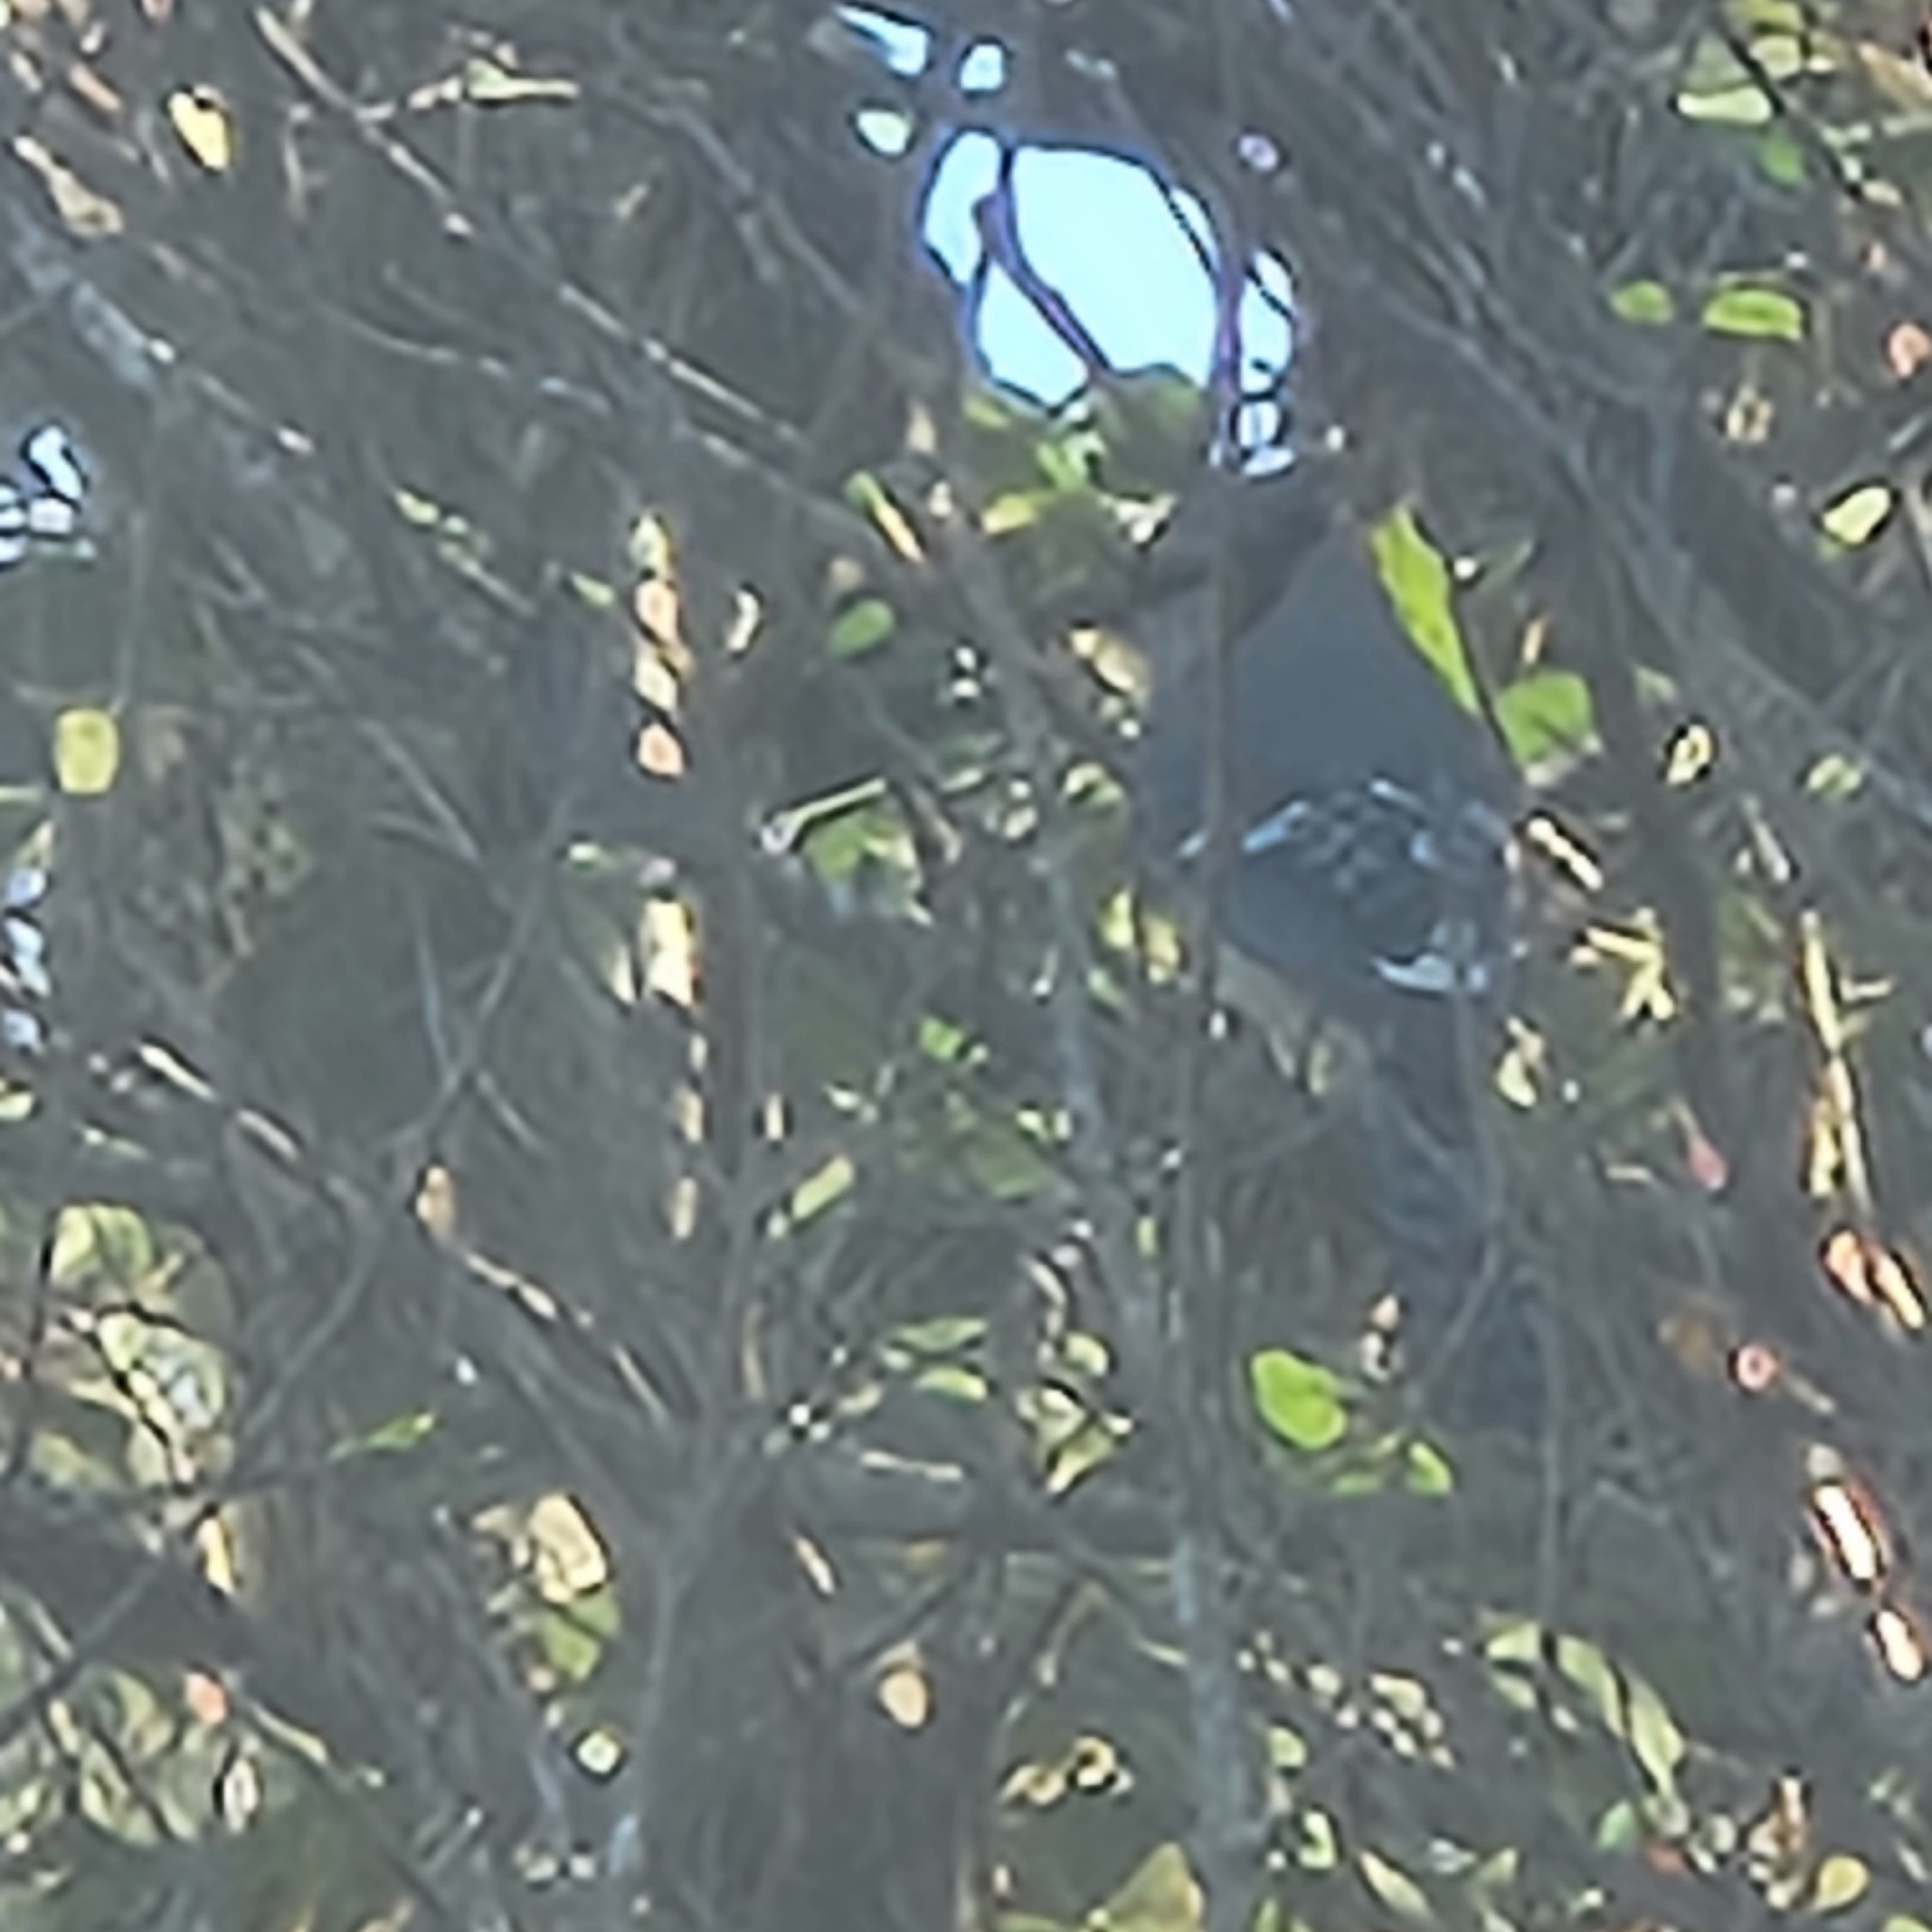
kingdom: Animalia
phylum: Chordata
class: Aves
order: Passeriformes
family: Corvidae
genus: Cyanocitta
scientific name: Cyanocitta cristata
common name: Blue jay
